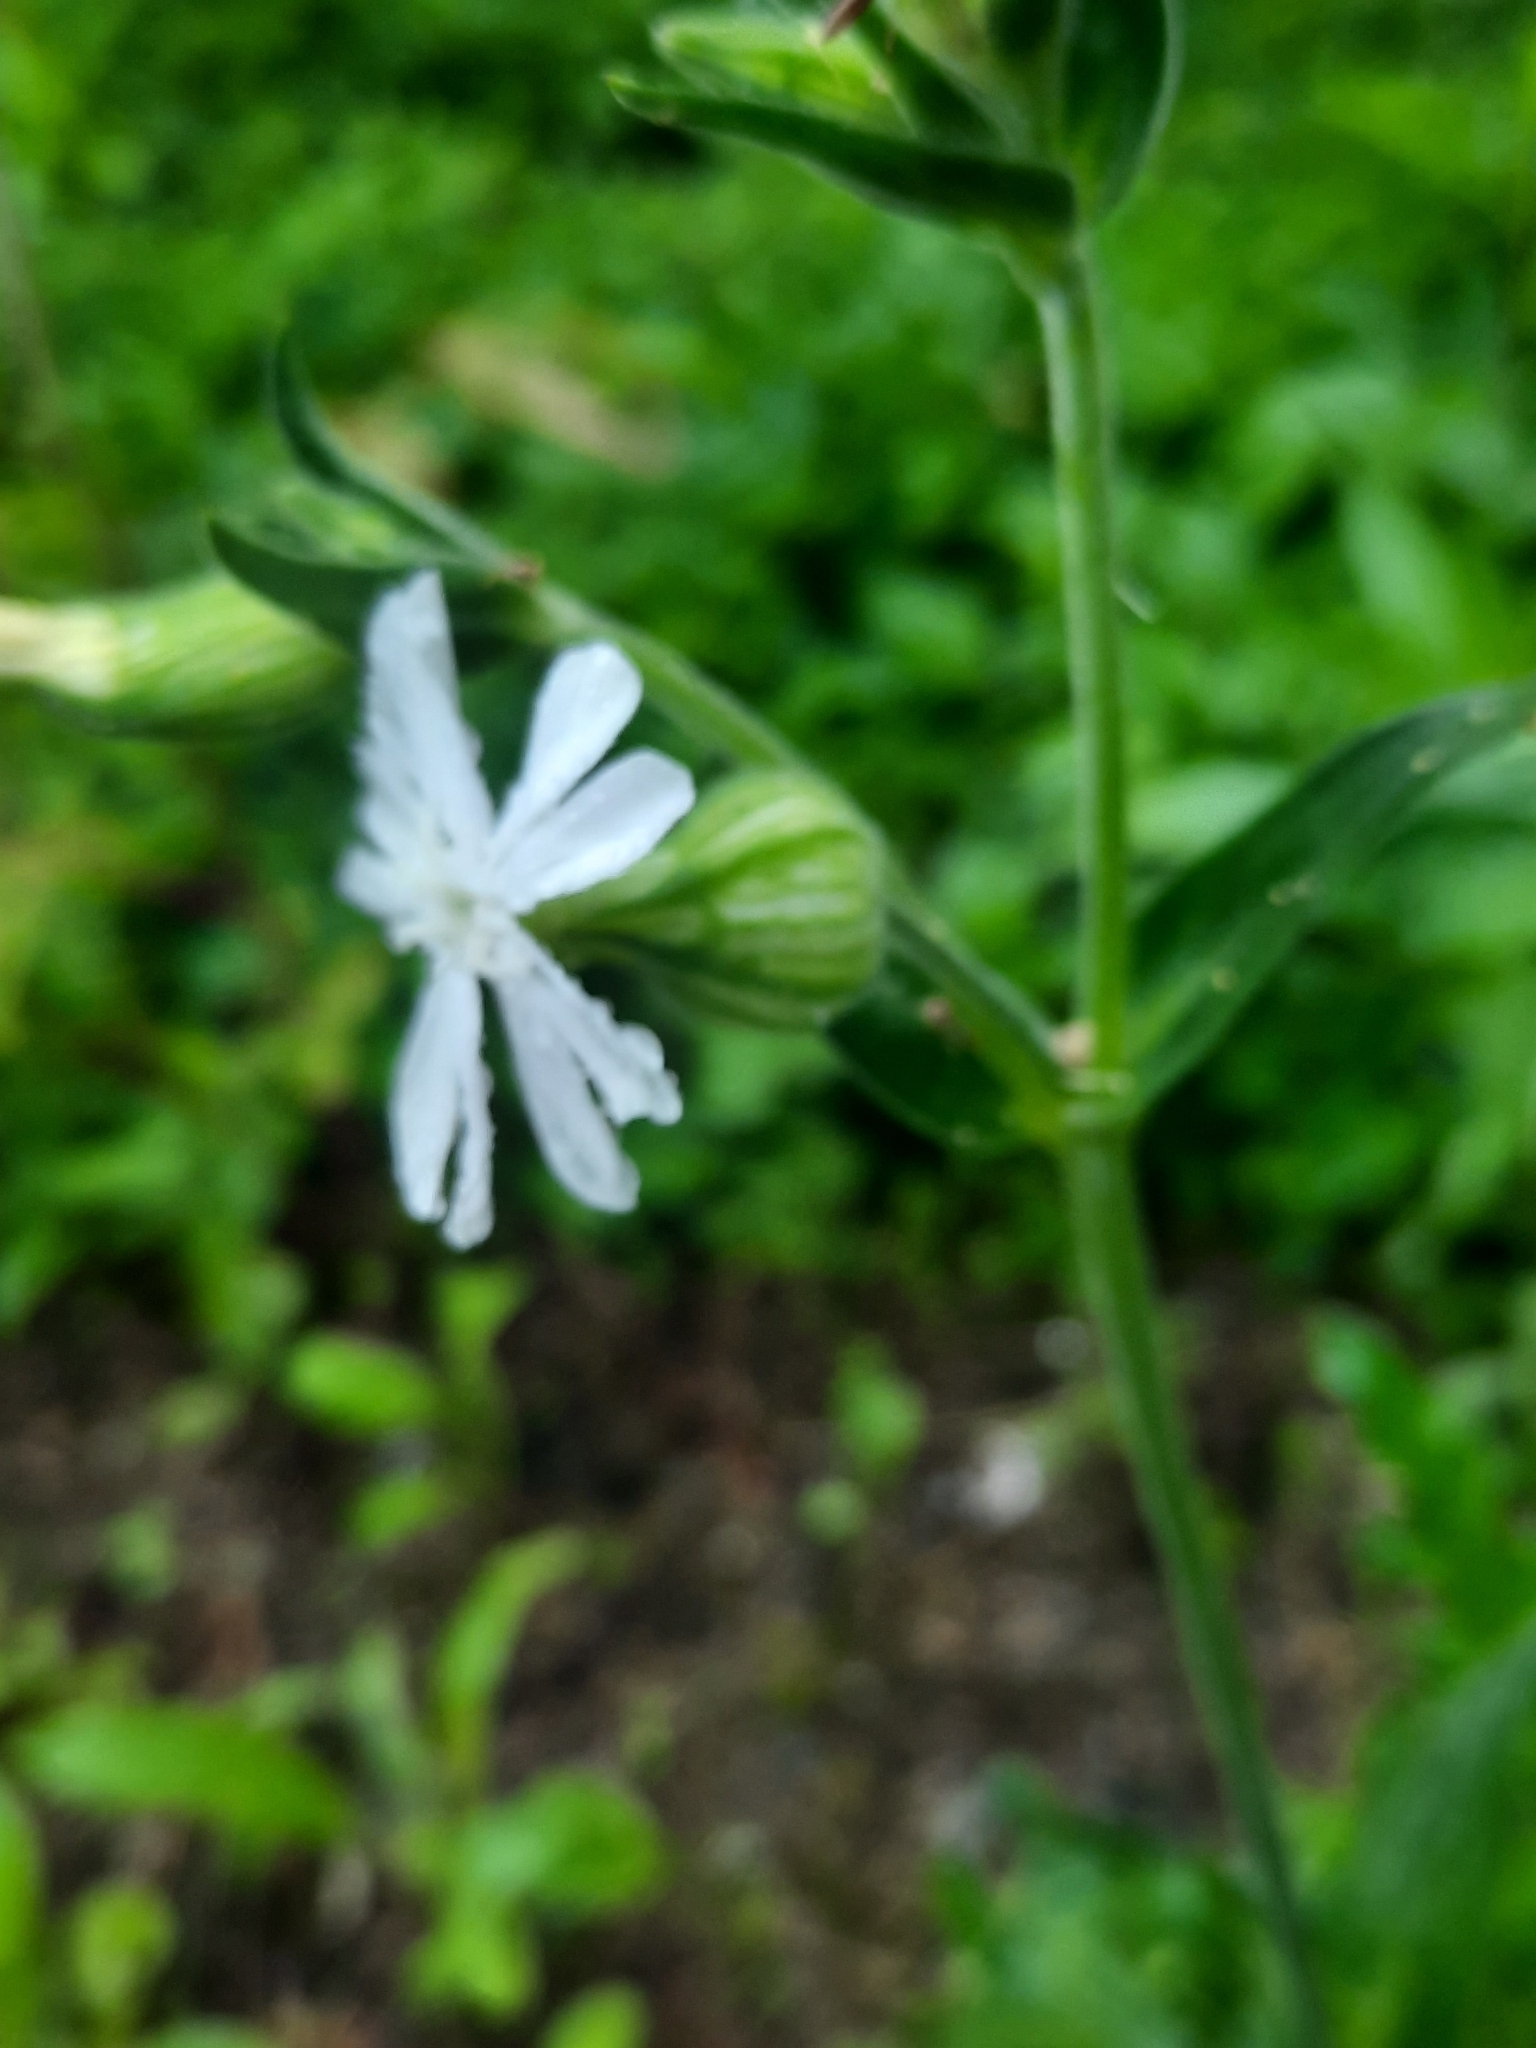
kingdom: Plantae
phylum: Tracheophyta
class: Magnoliopsida
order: Caryophyllales
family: Caryophyllaceae
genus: Silene
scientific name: Silene latifolia
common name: White campion
